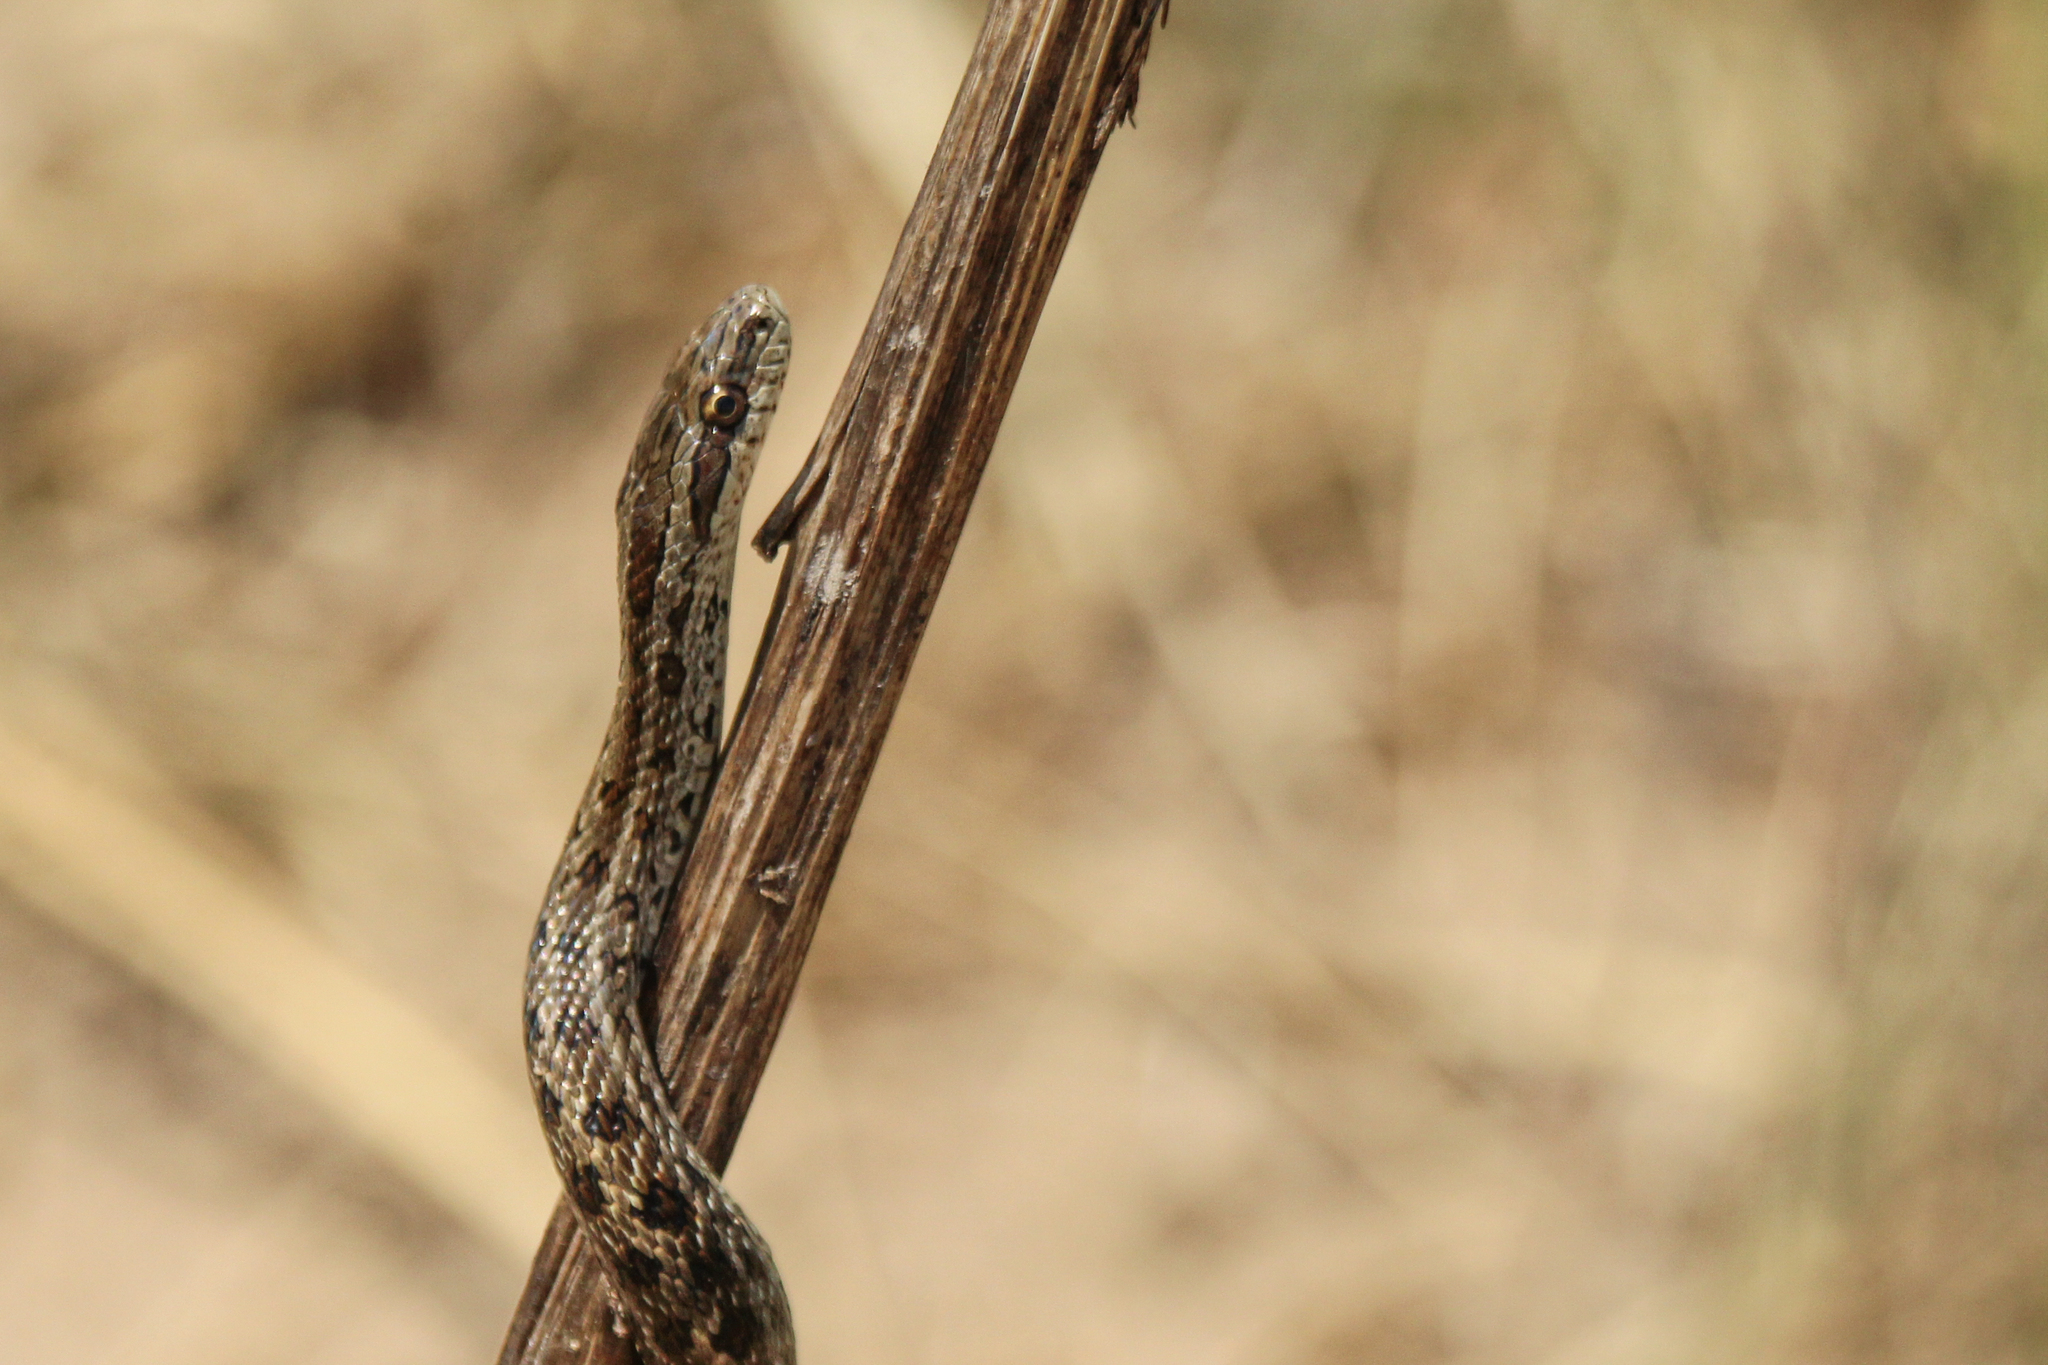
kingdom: Animalia
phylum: Chordata
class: Squamata
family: Colubridae
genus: Elaphe
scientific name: Elaphe dione
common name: Dione ratsnake
